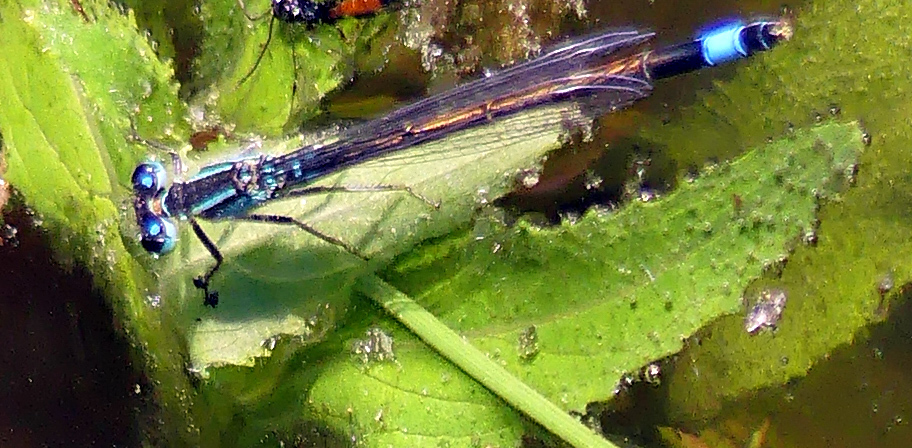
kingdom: Animalia
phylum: Arthropoda
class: Insecta
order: Odonata
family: Coenagrionidae
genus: Ischnura
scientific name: Ischnura elegans
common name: Blue-tailed damselfly
